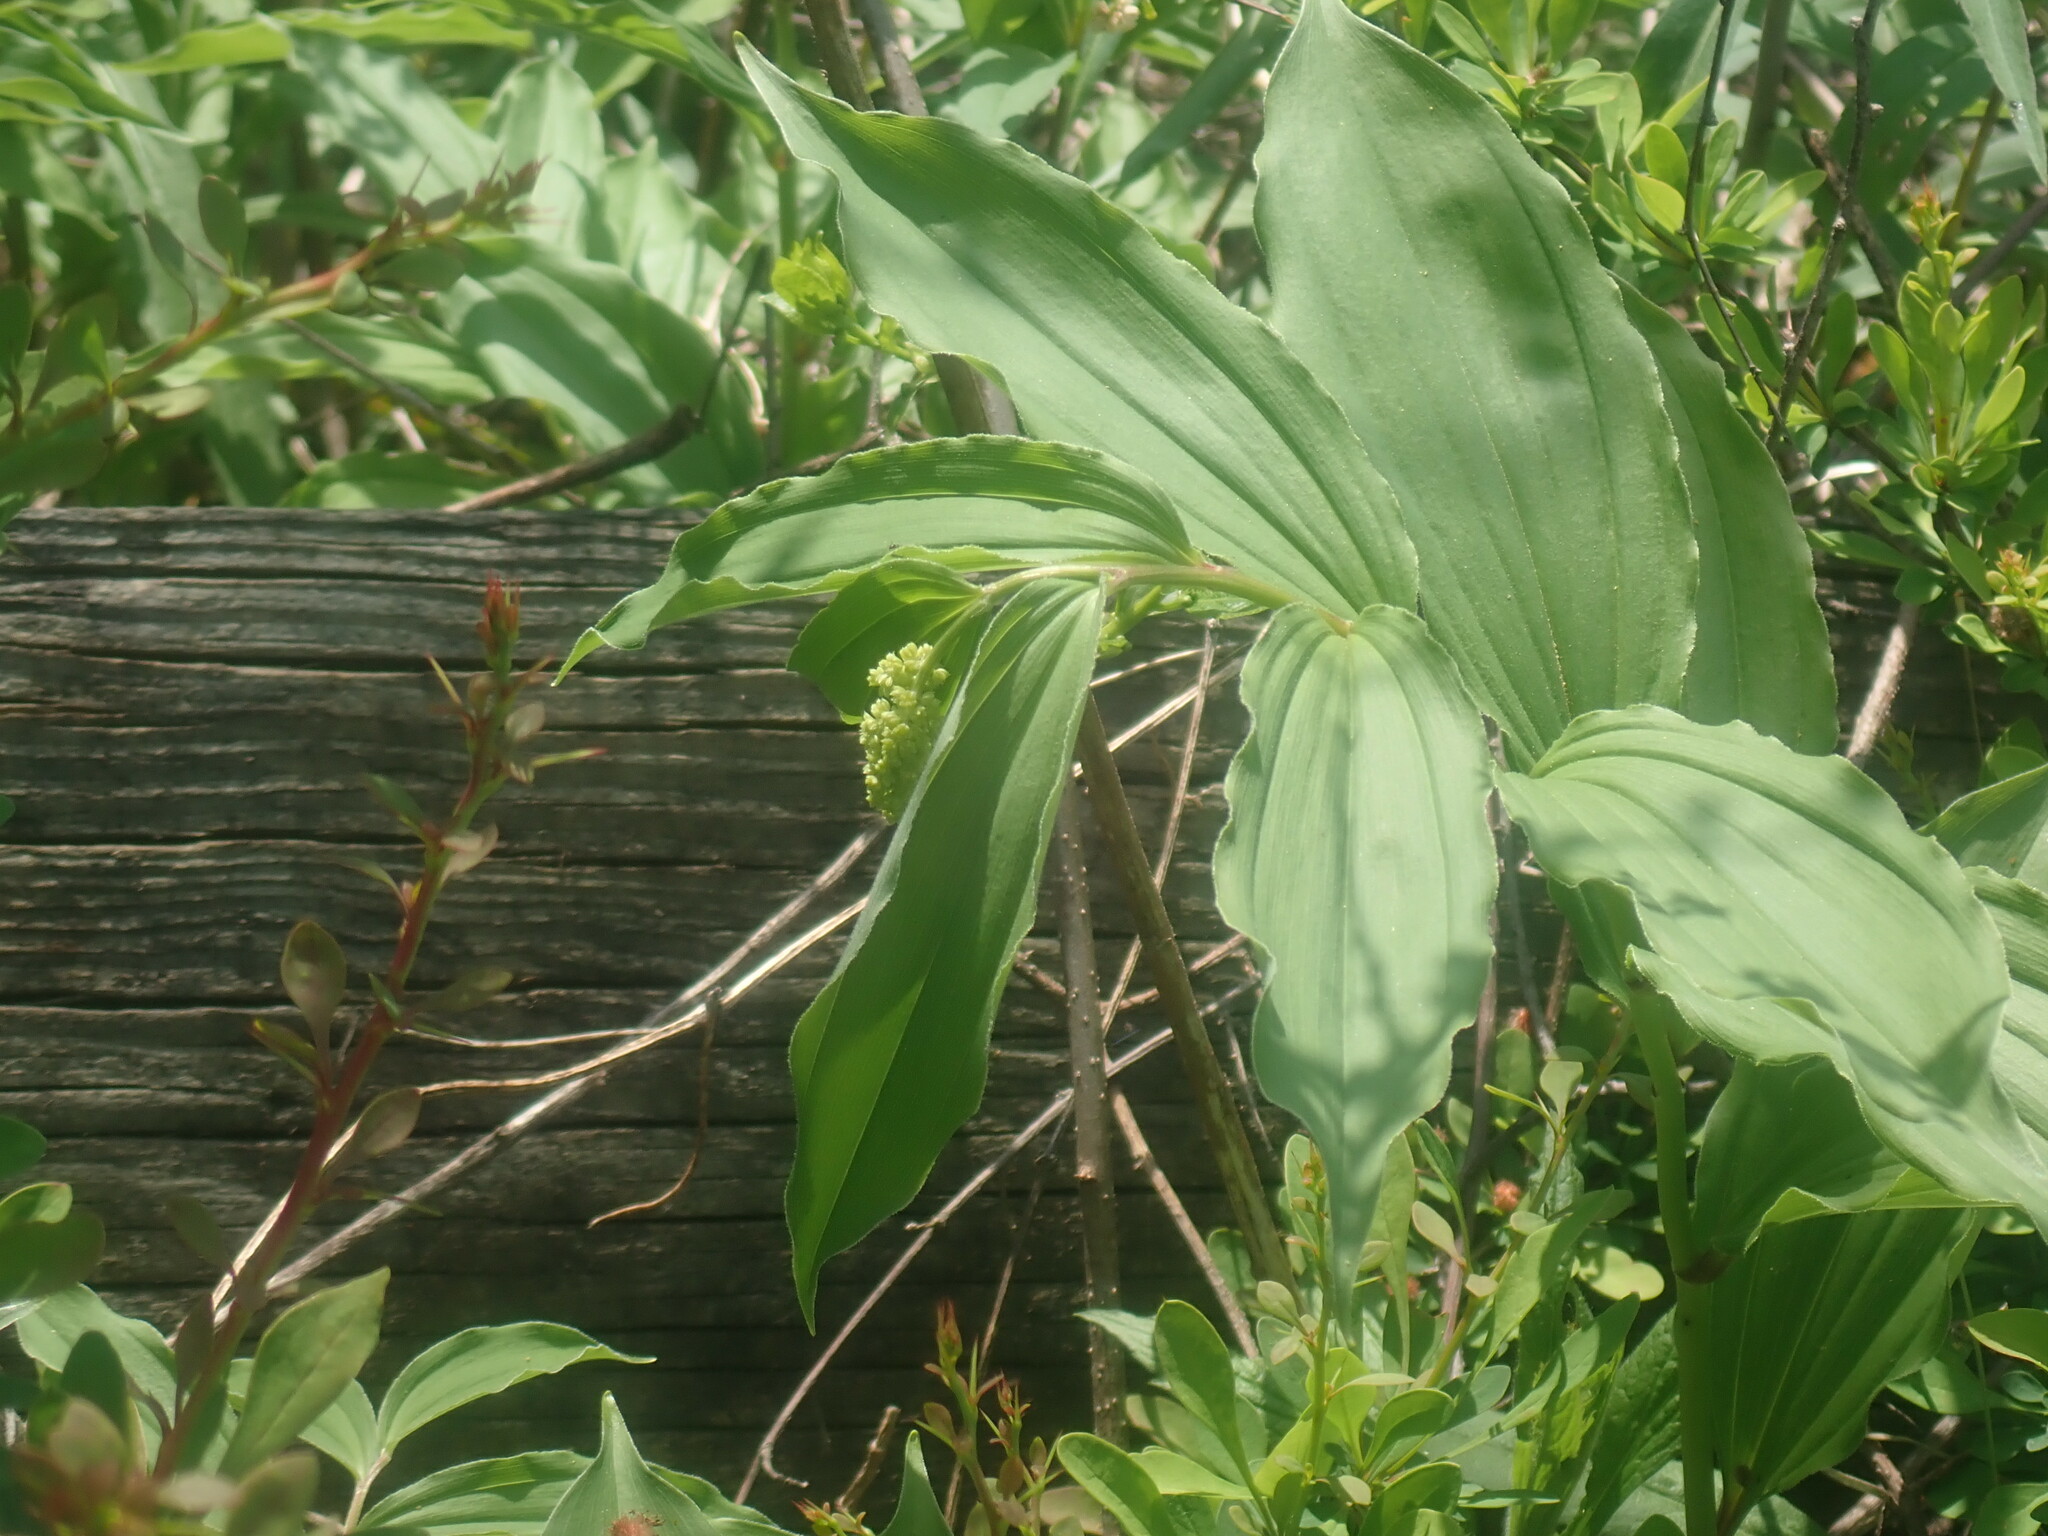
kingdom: Plantae
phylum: Tracheophyta
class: Liliopsida
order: Asparagales
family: Asparagaceae
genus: Maianthemum
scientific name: Maianthemum racemosum
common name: False spikenard
